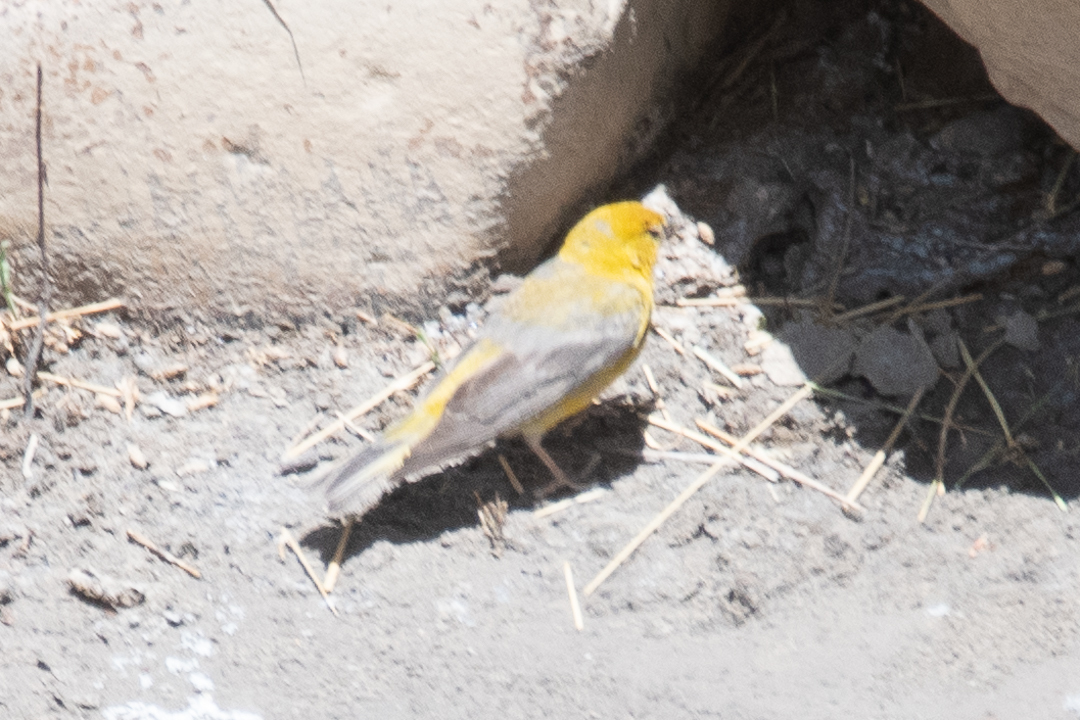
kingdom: Animalia
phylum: Chordata
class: Aves
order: Passeriformes
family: Thraupidae
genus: Sicalis
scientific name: Sicalis auriventris
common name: Greater yellow finch
